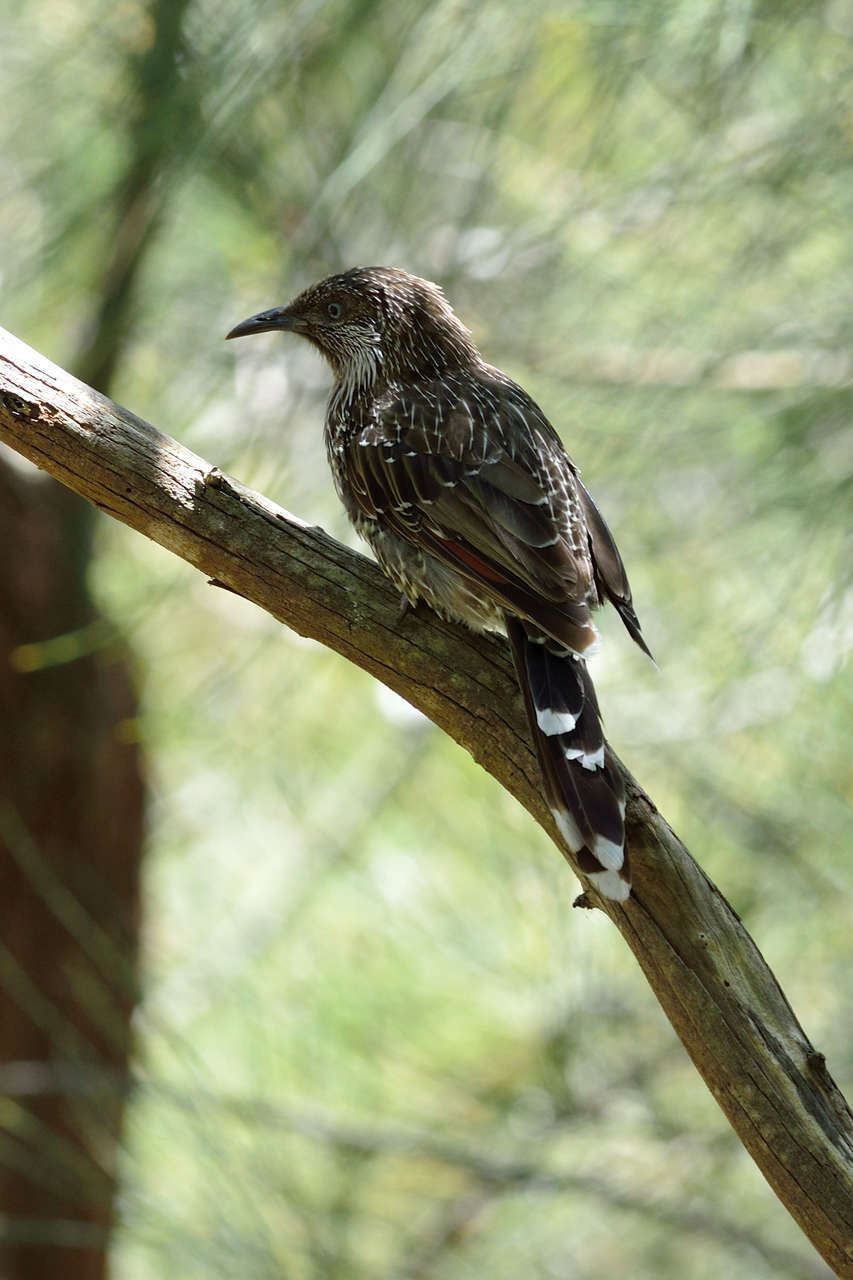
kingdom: Animalia
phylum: Chordata
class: Aves
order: Passeriformes
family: Meliphagidae
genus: Anthochaera
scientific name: Anthochaera chrysoptera
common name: Little wattlebird
